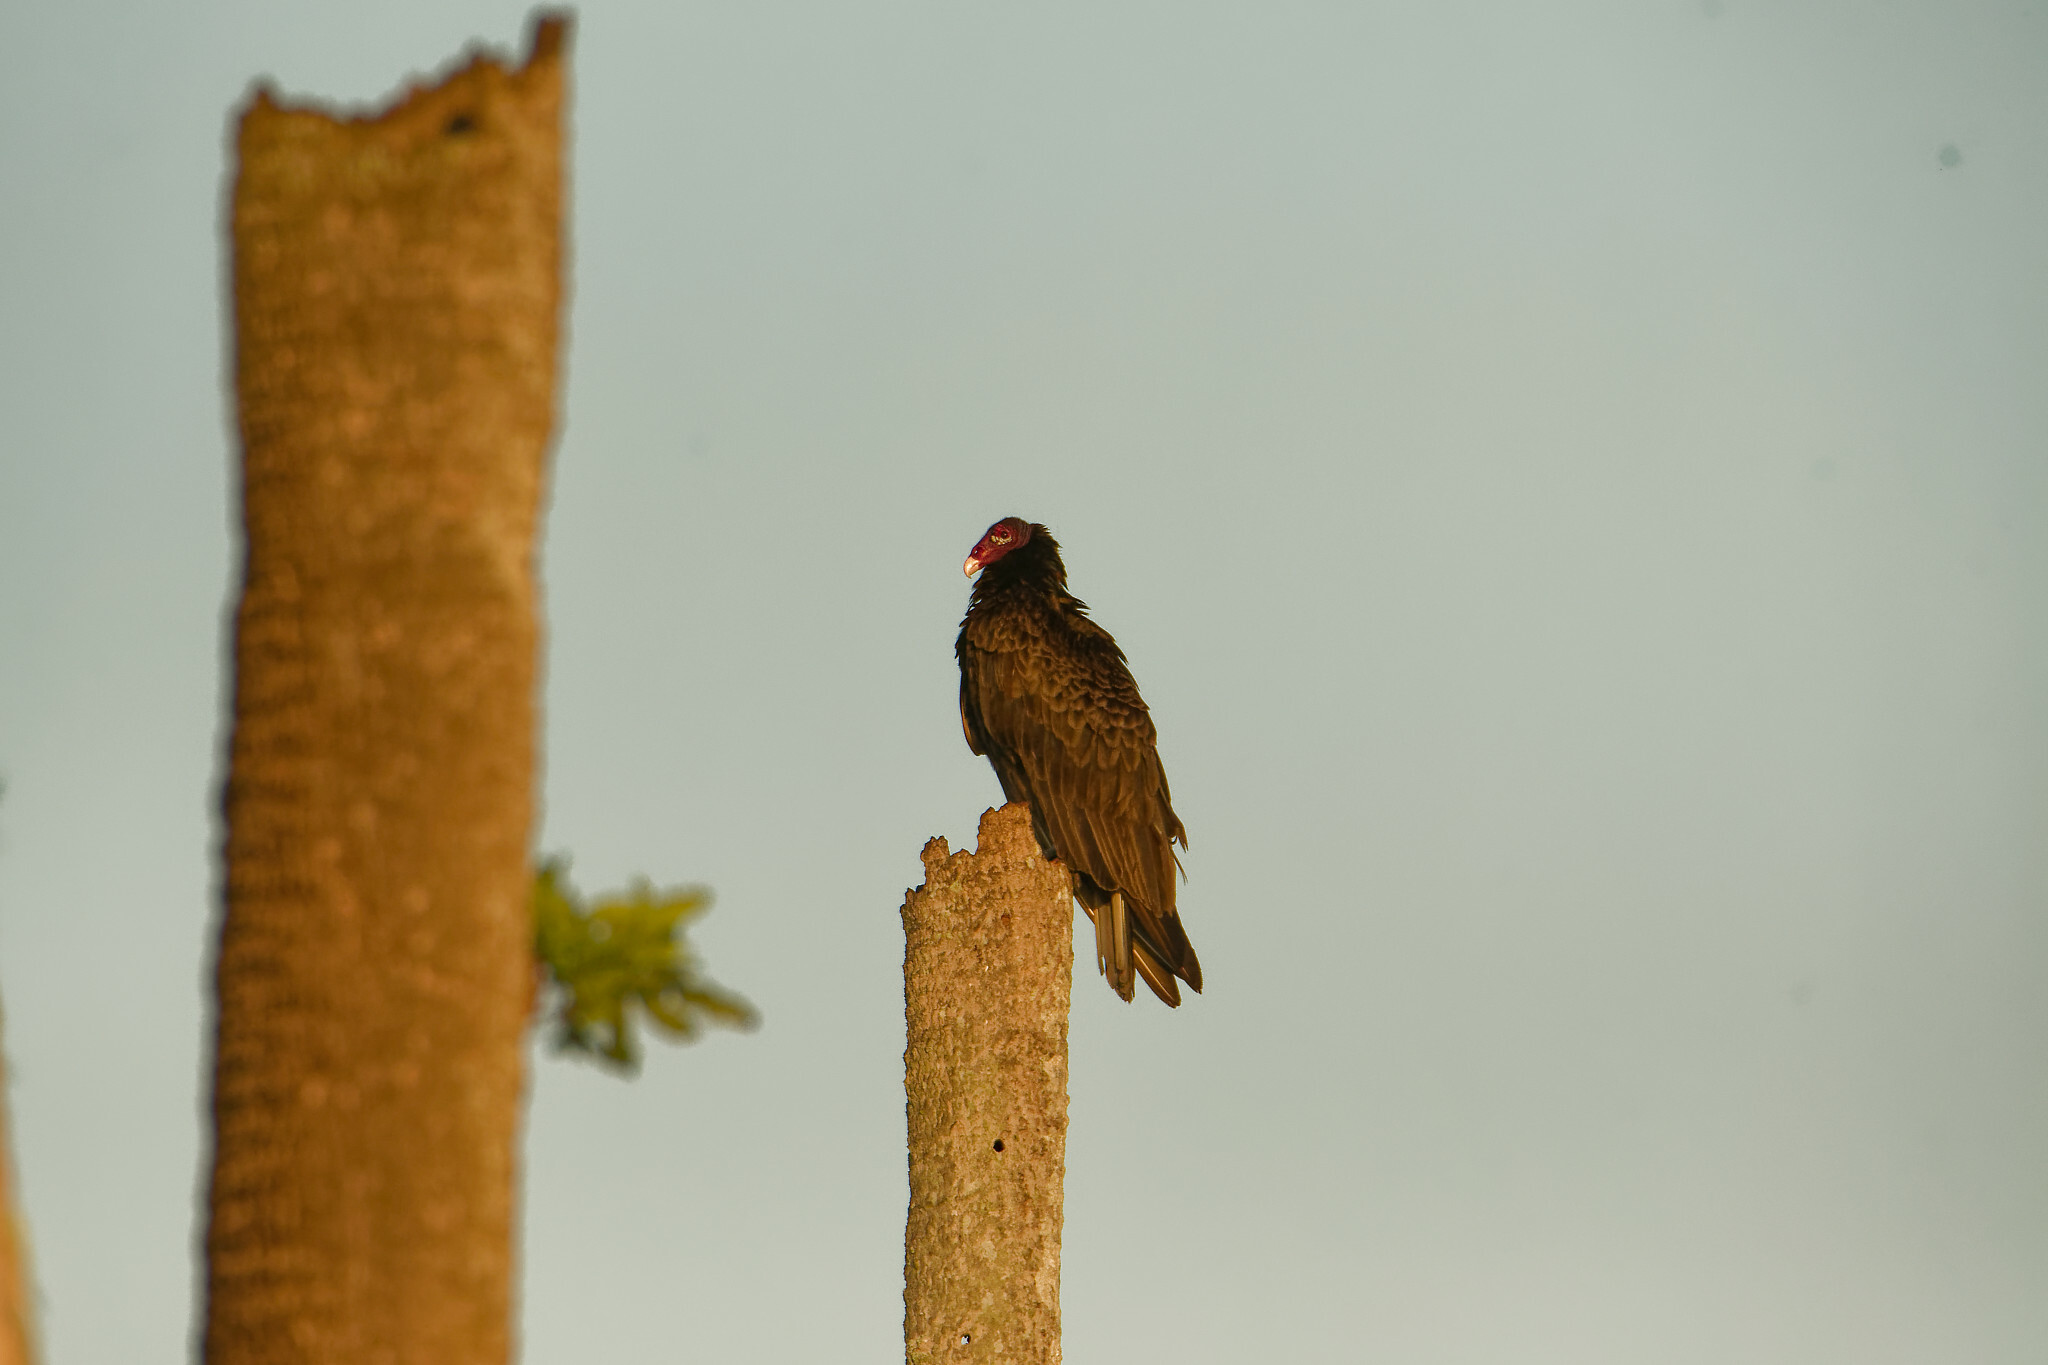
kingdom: Animalia
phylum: Chordata
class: Aves
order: Accipitriformes
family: Cathartidae
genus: Cathartes
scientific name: Cathartes aura
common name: Turkey vulture
